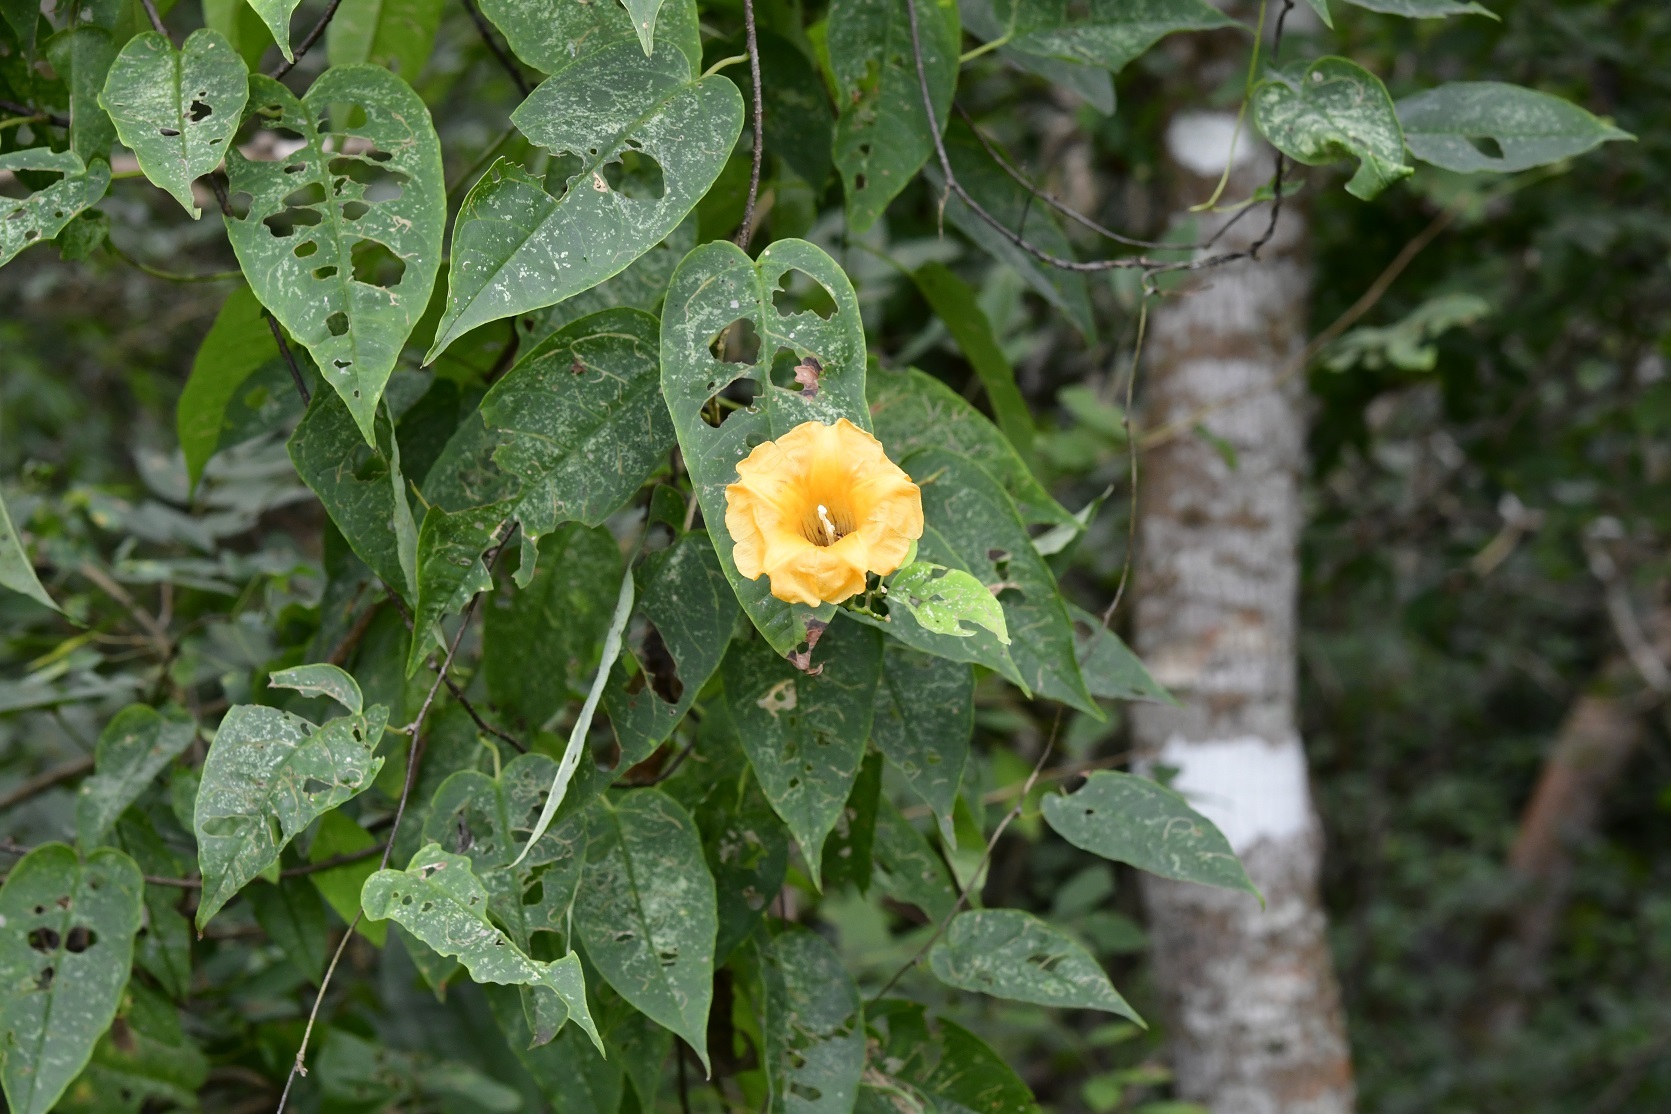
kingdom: Plantae
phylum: Tracheophyta
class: Magnoliopsida
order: Solanales
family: Convolvulaceae
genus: Ipomoea
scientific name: Ipomoea aurantiaca
